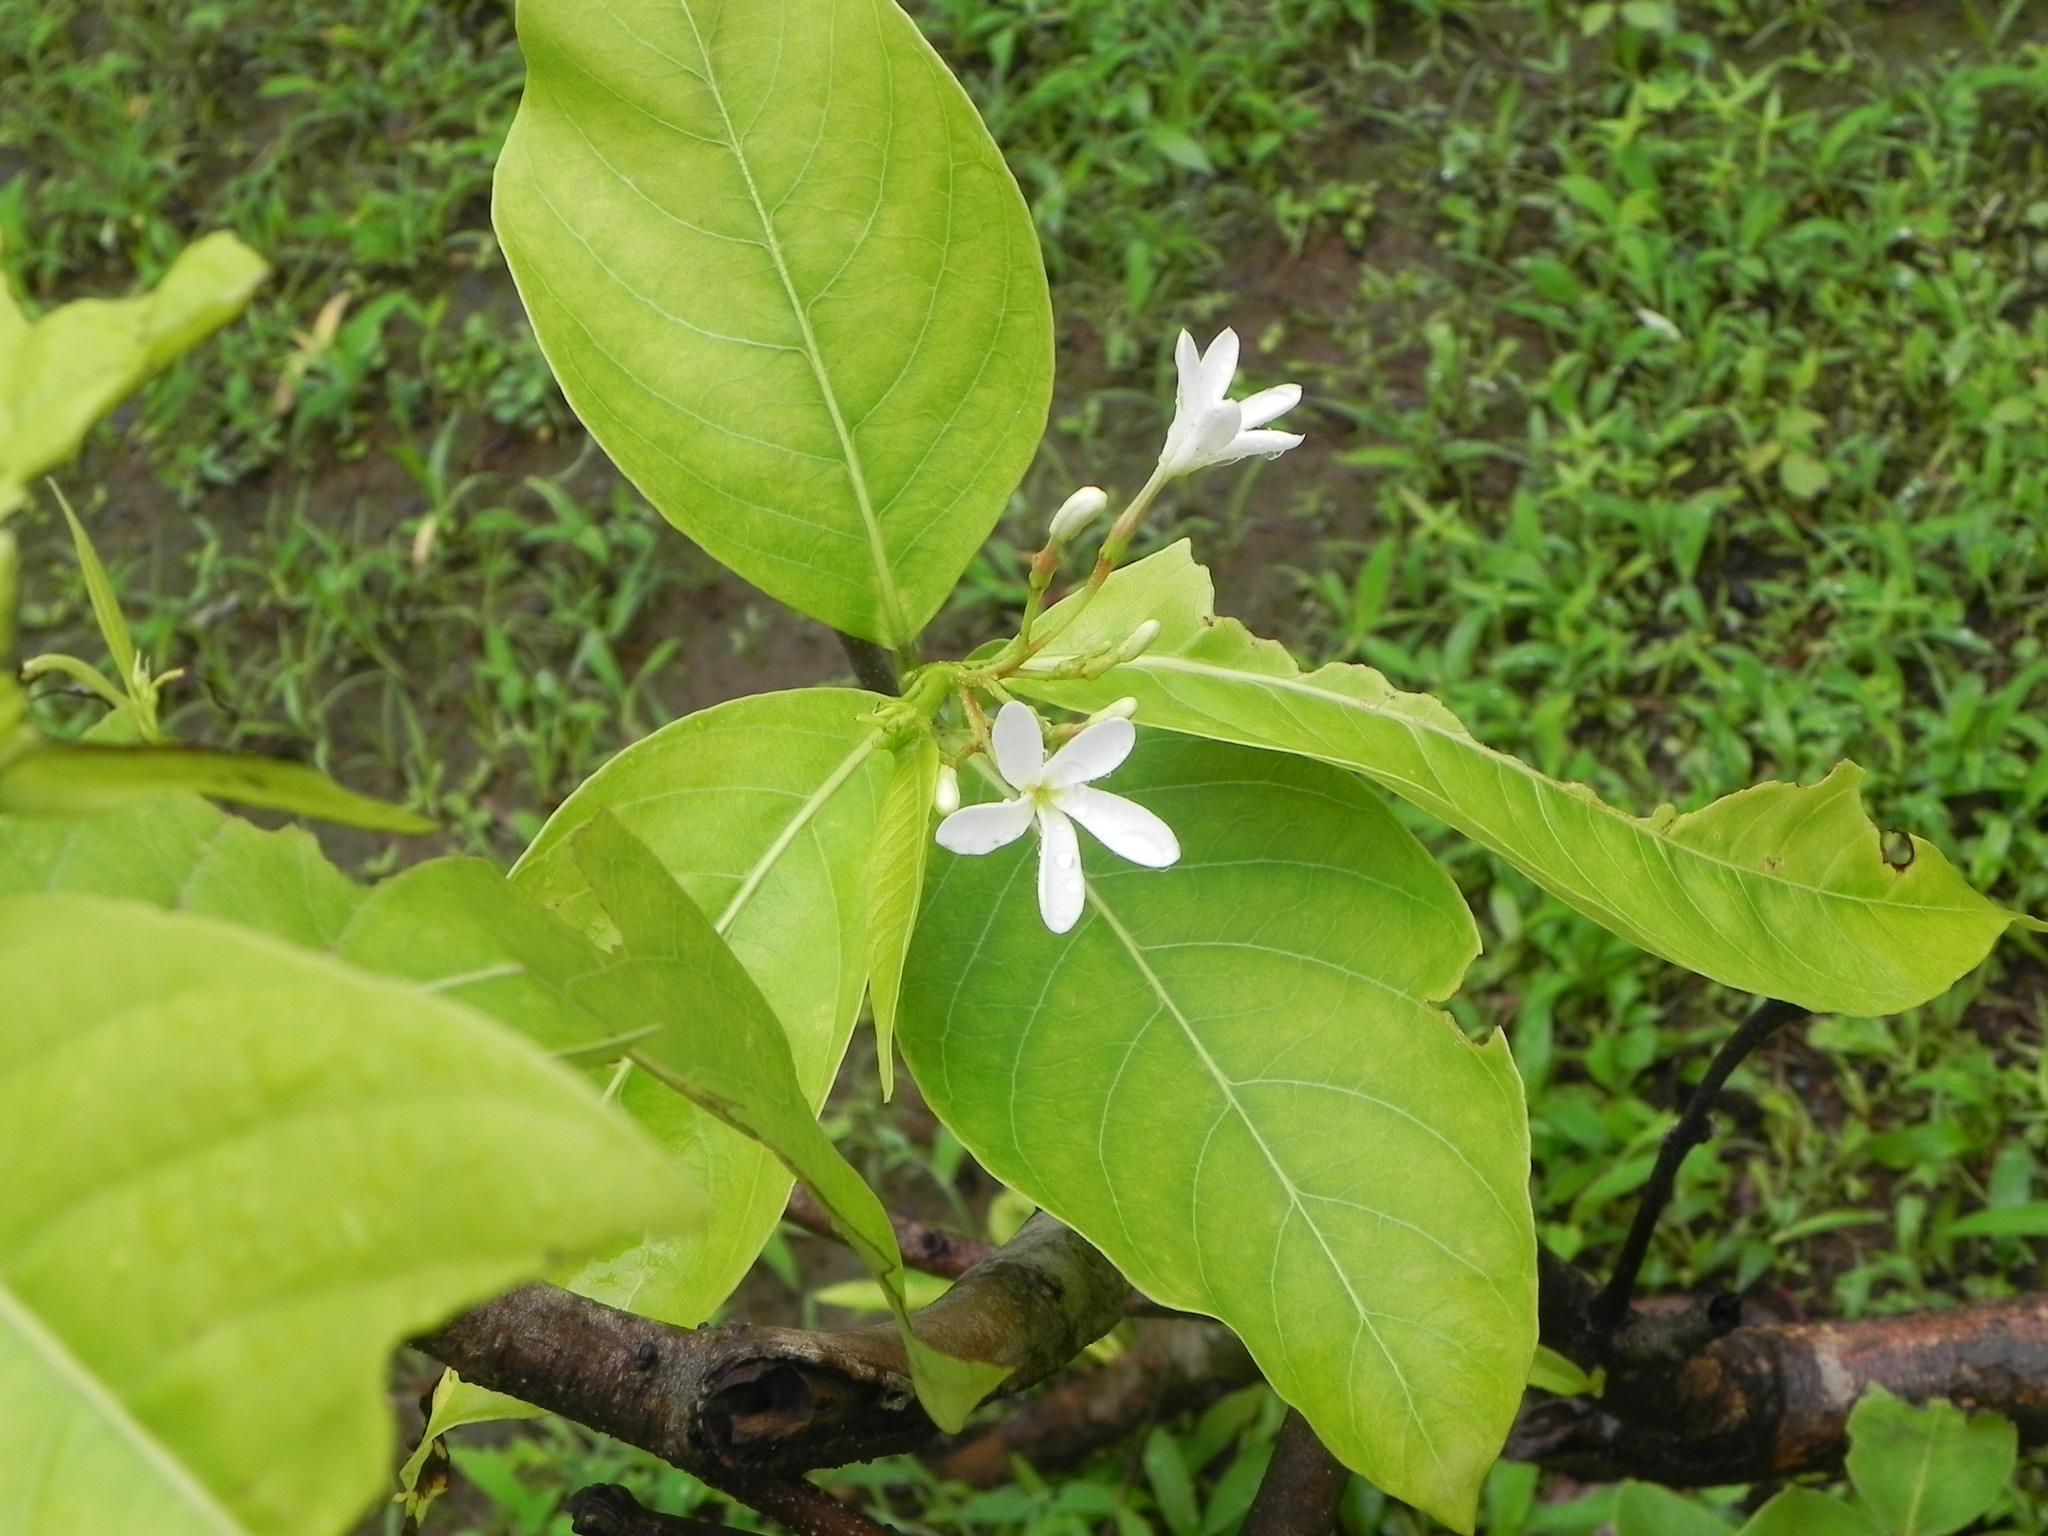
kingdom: Plantae
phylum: Tracheophyta
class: Magnoliopsida
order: Gentianales
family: Apocynaceae
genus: Holarrhena
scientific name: Holarrhena pubescens
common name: Bitter oleander
